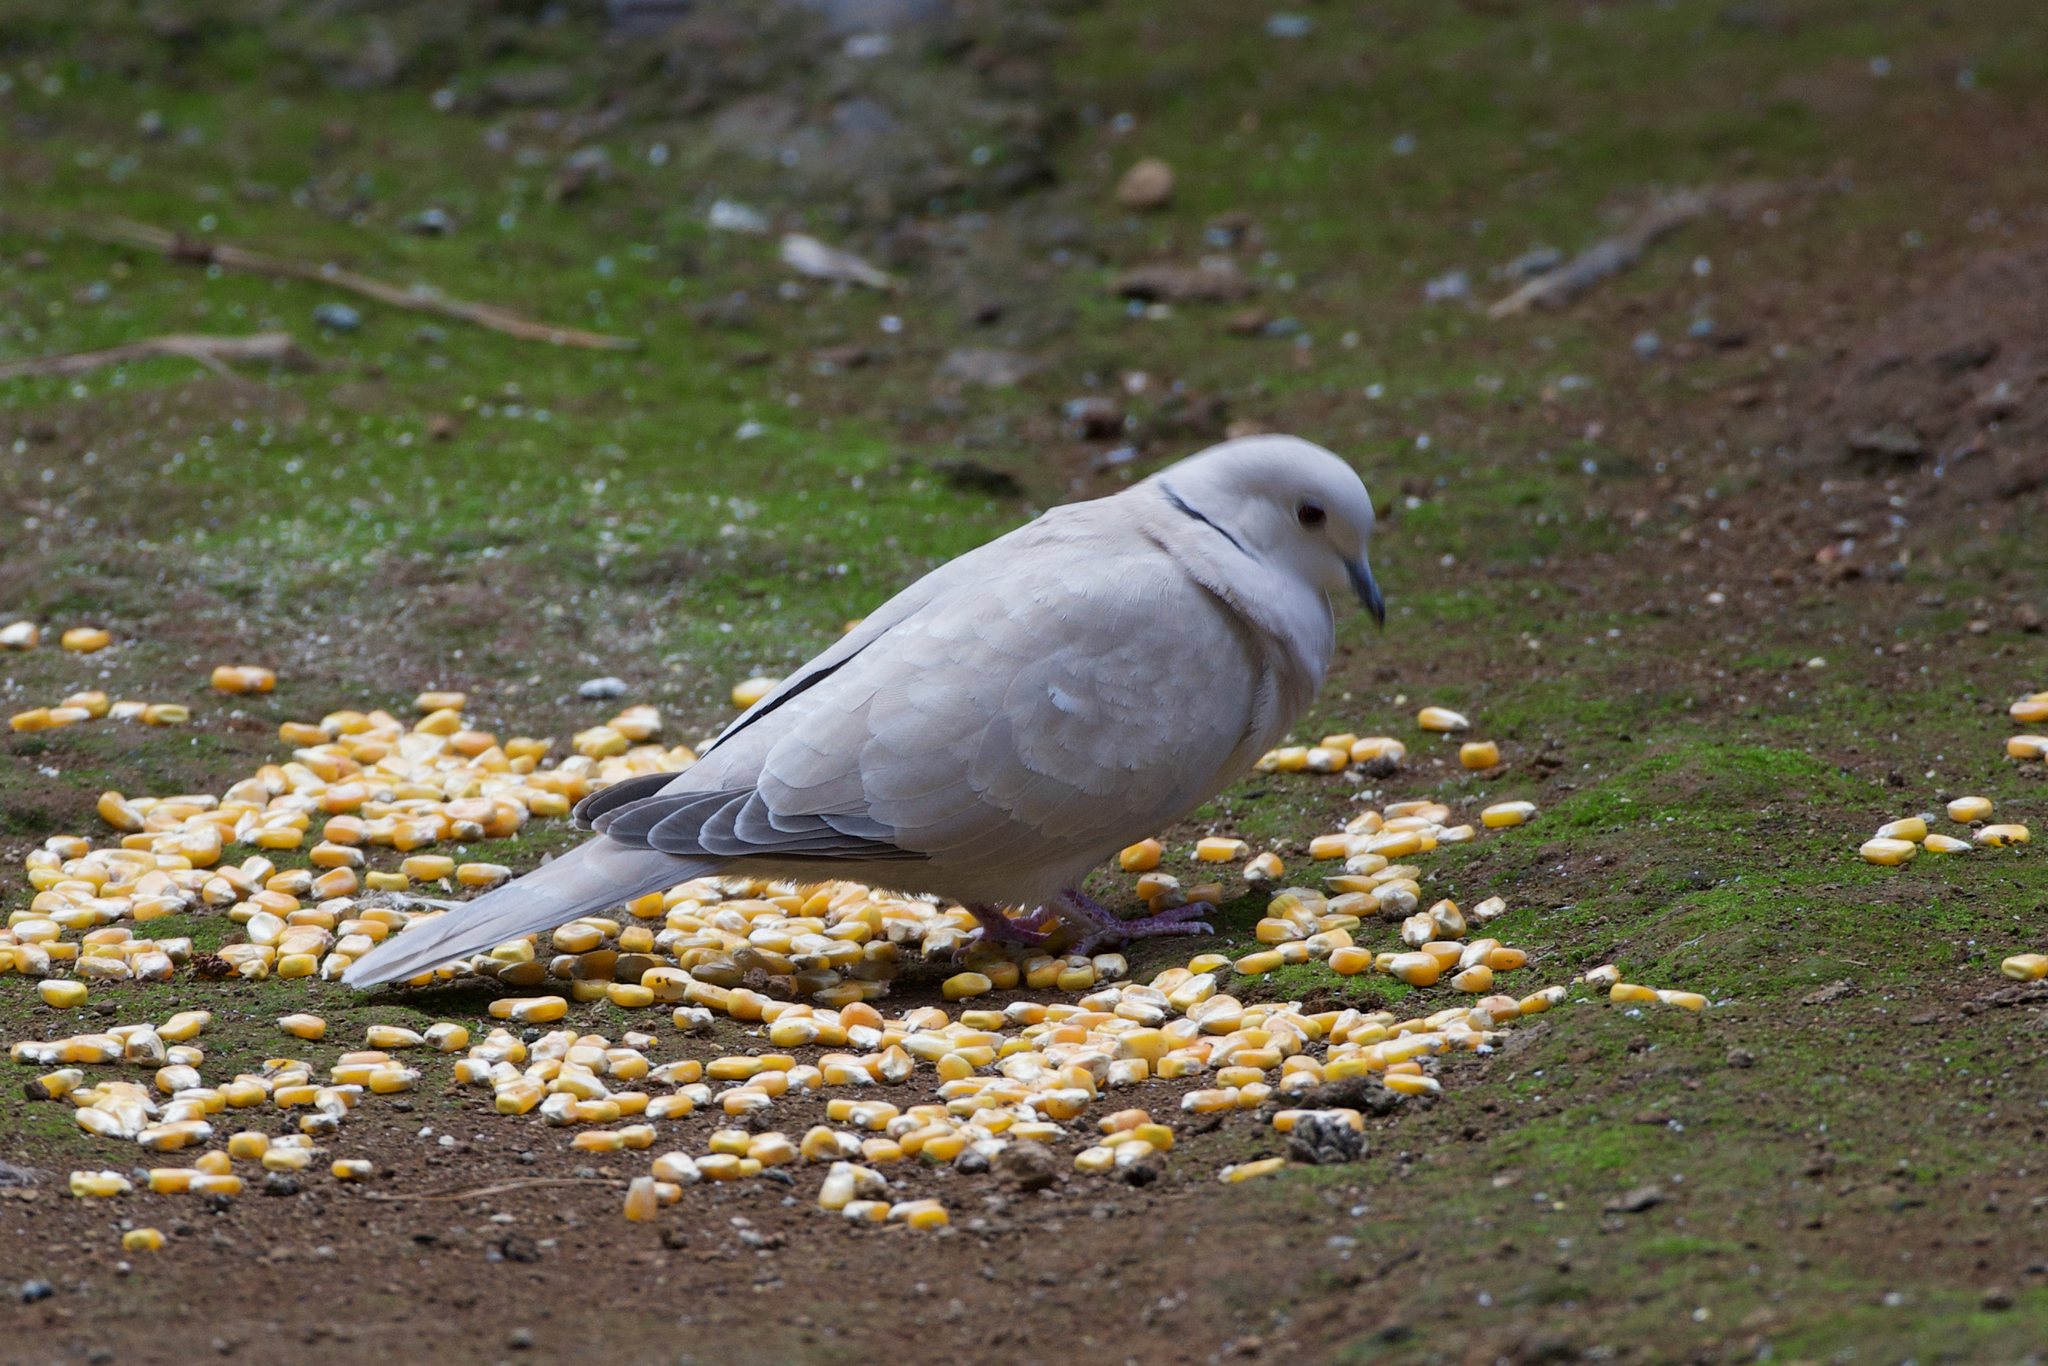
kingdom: Animalia
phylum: Chordata
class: Aves
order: Columbiformes
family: Columbidae
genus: Streptopelia
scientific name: Streptopelia decaocto
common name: Eurasian collared dove
